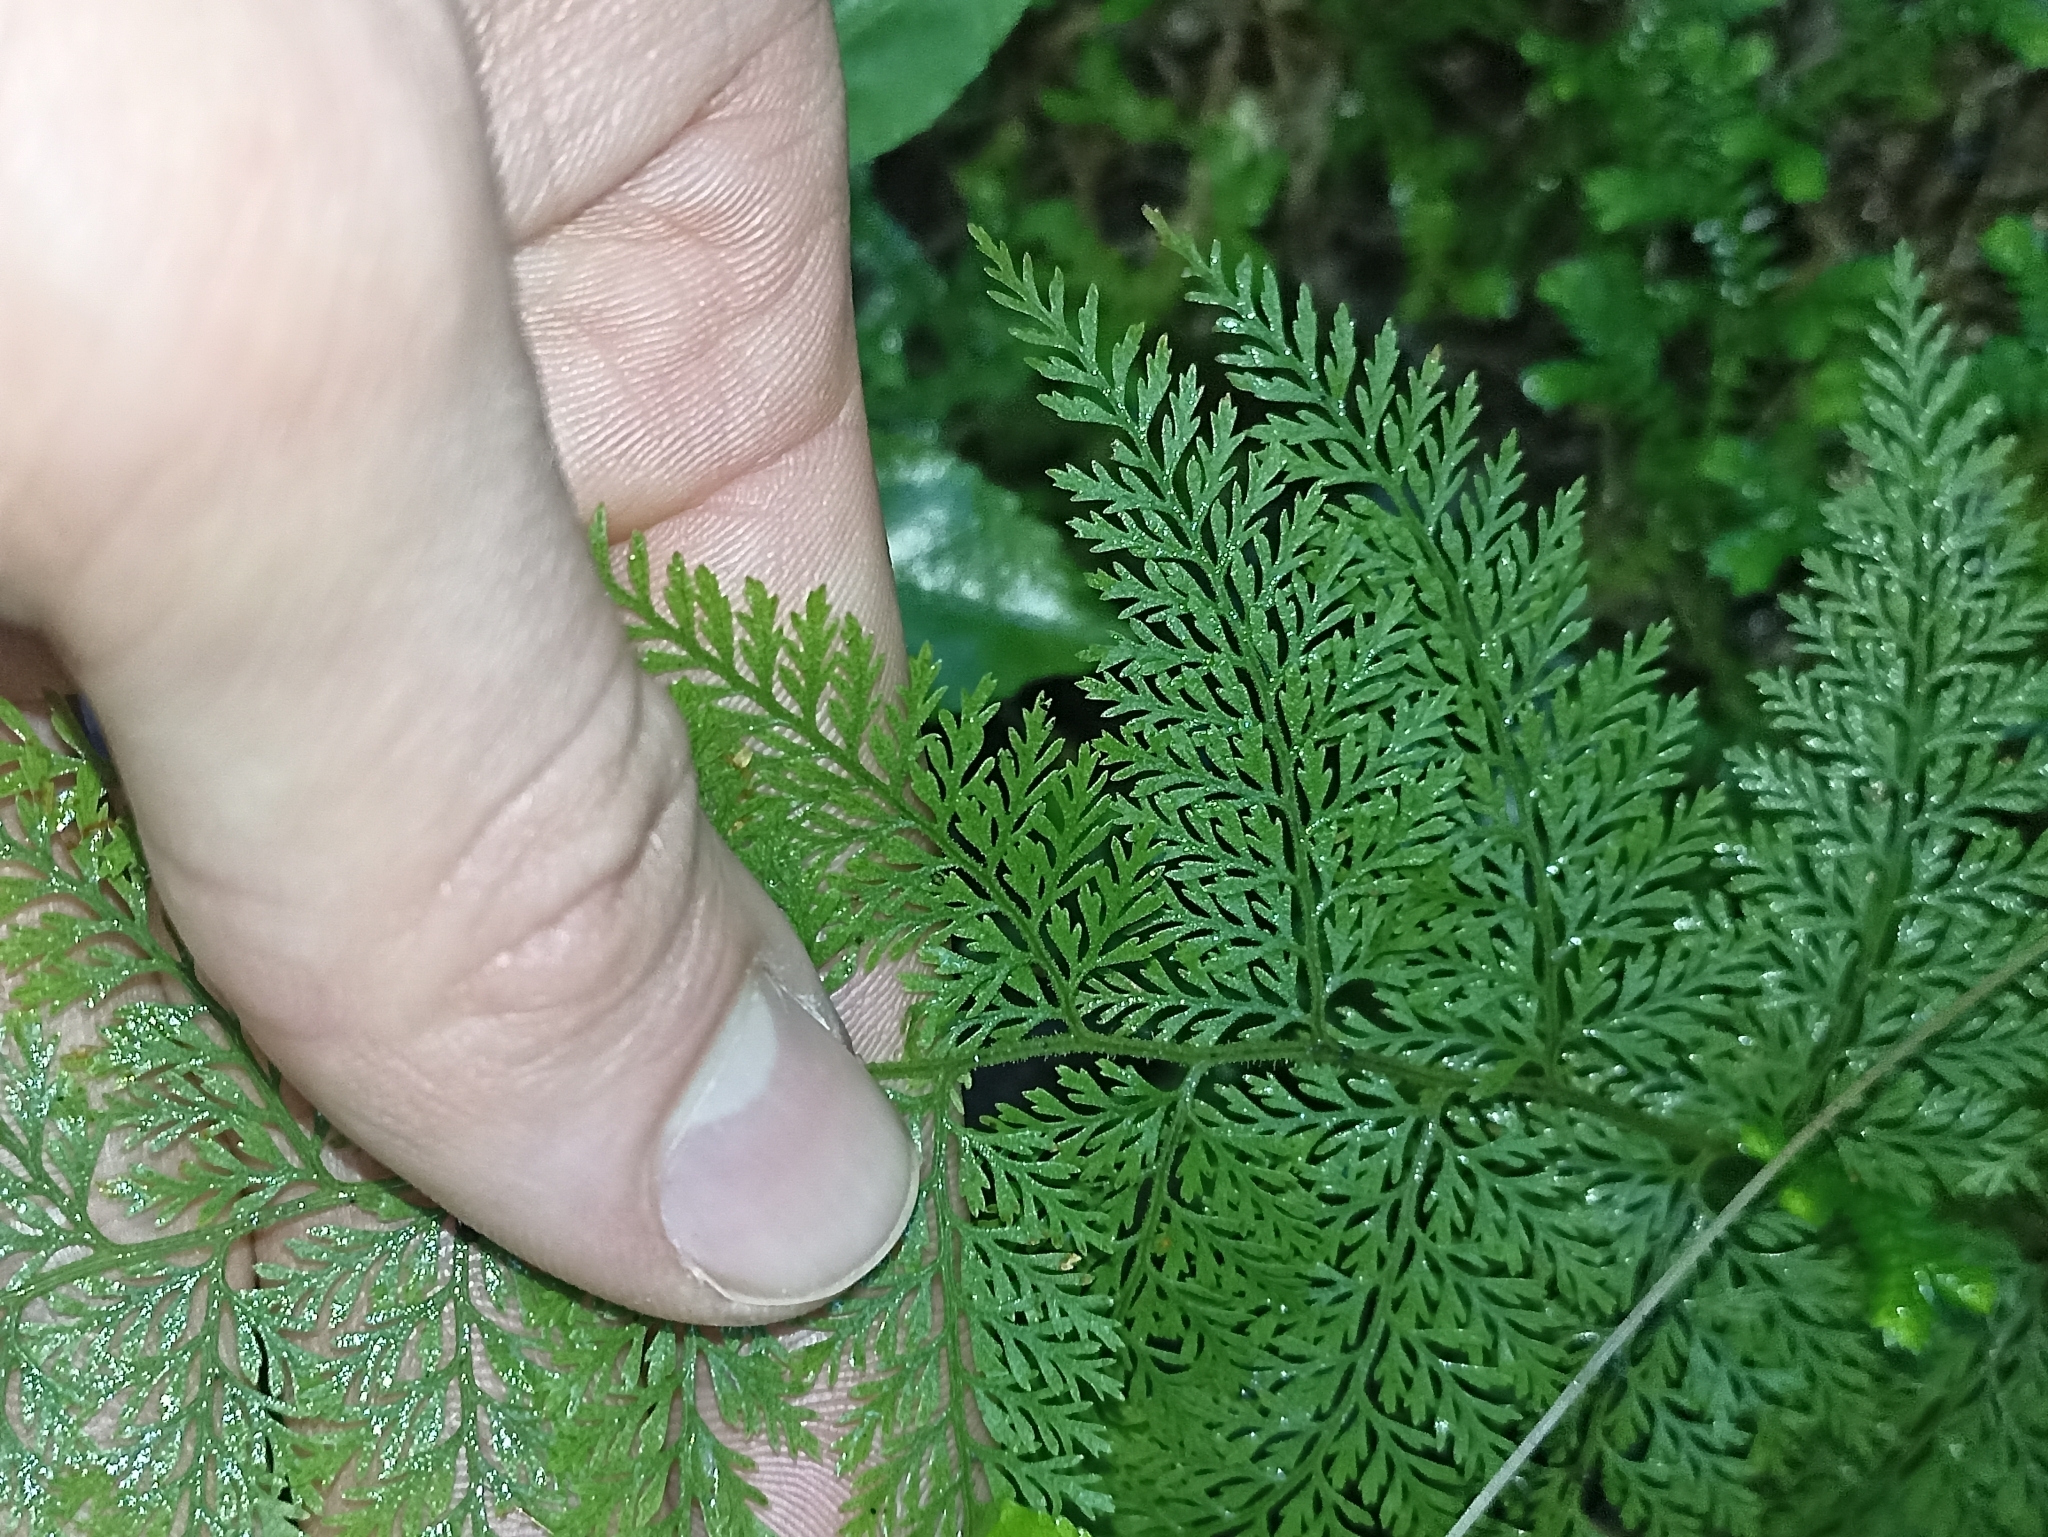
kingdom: Plantae
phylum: Tracheophyta
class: Polypodiopsida
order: Polypodiales
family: Dennstaedtiaceae
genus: Paesia
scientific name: Paesia scaberula
